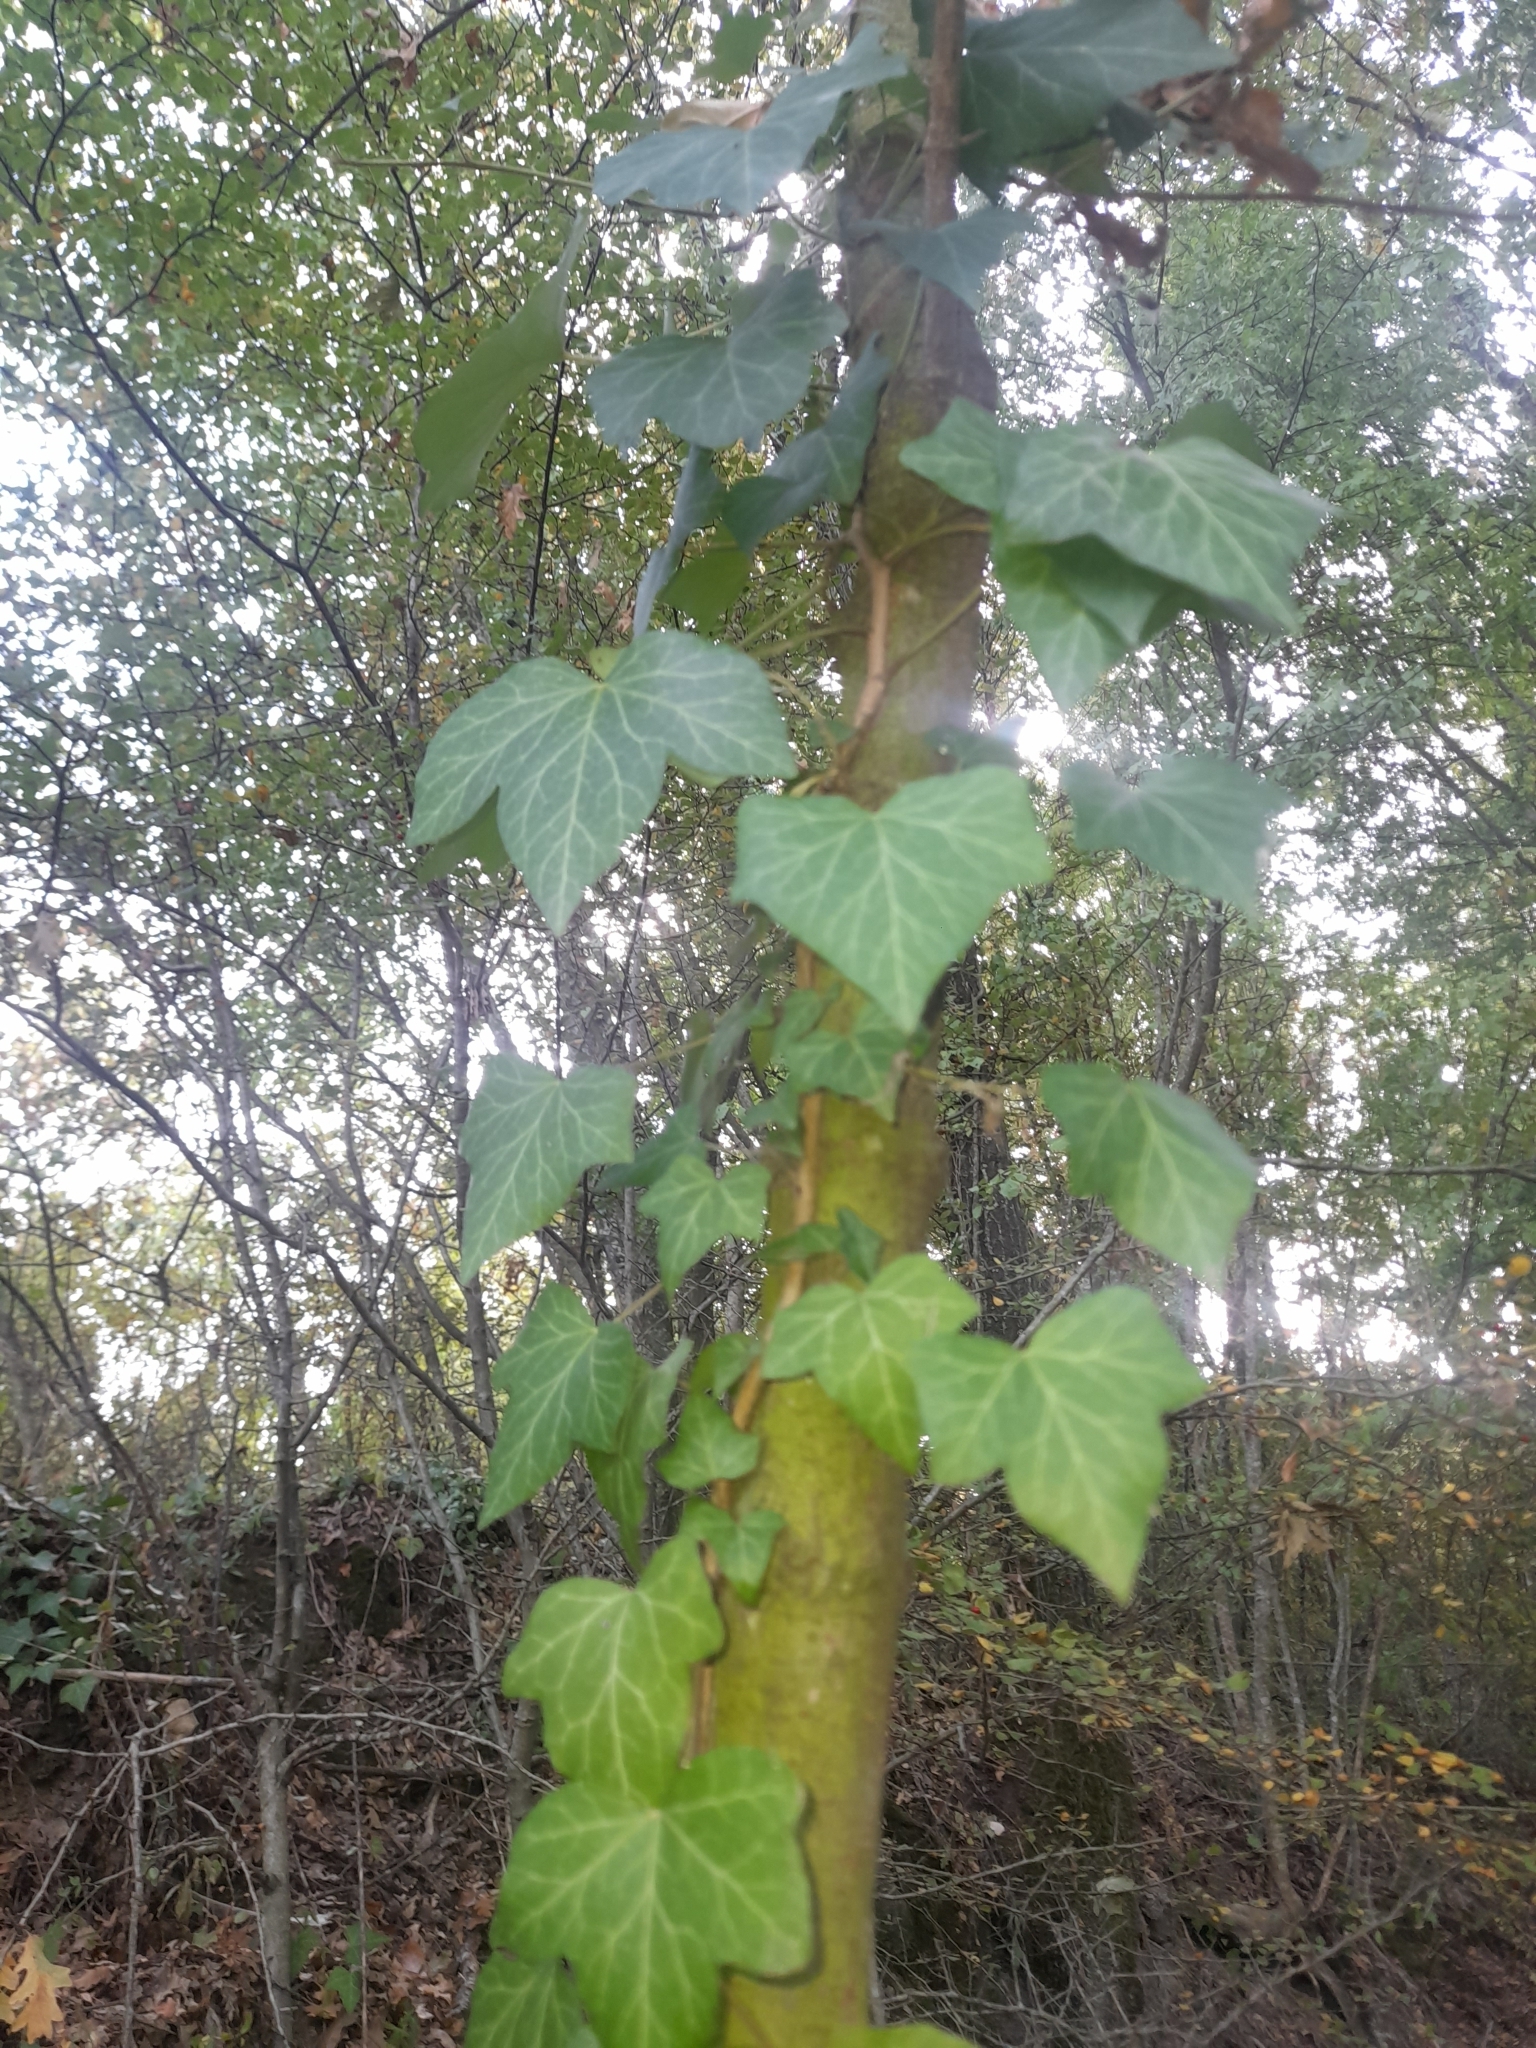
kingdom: Plantae
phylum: Tracheophyta
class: Magnoliopsida
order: Apiales
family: Araliaceae
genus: Hedera
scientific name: Hedera helix
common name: Ivy
